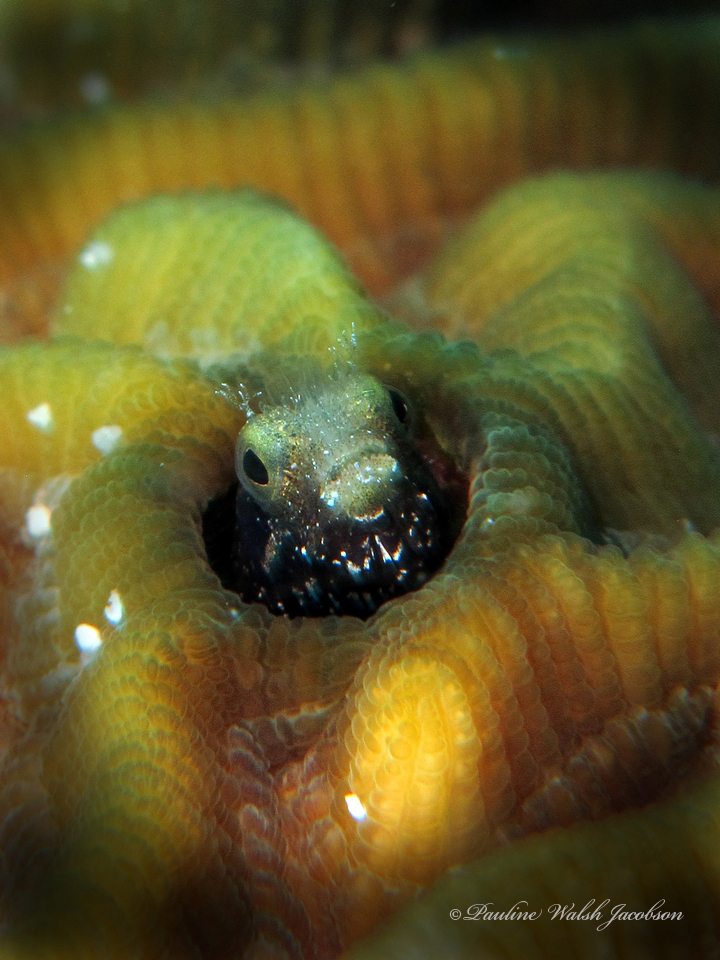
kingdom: Animalia
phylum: Chordata
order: Perciformes
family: Chaenopsidae
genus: Acanthemblemaria
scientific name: Acanthemblemaria spinosa
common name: Spinyhead blenny
